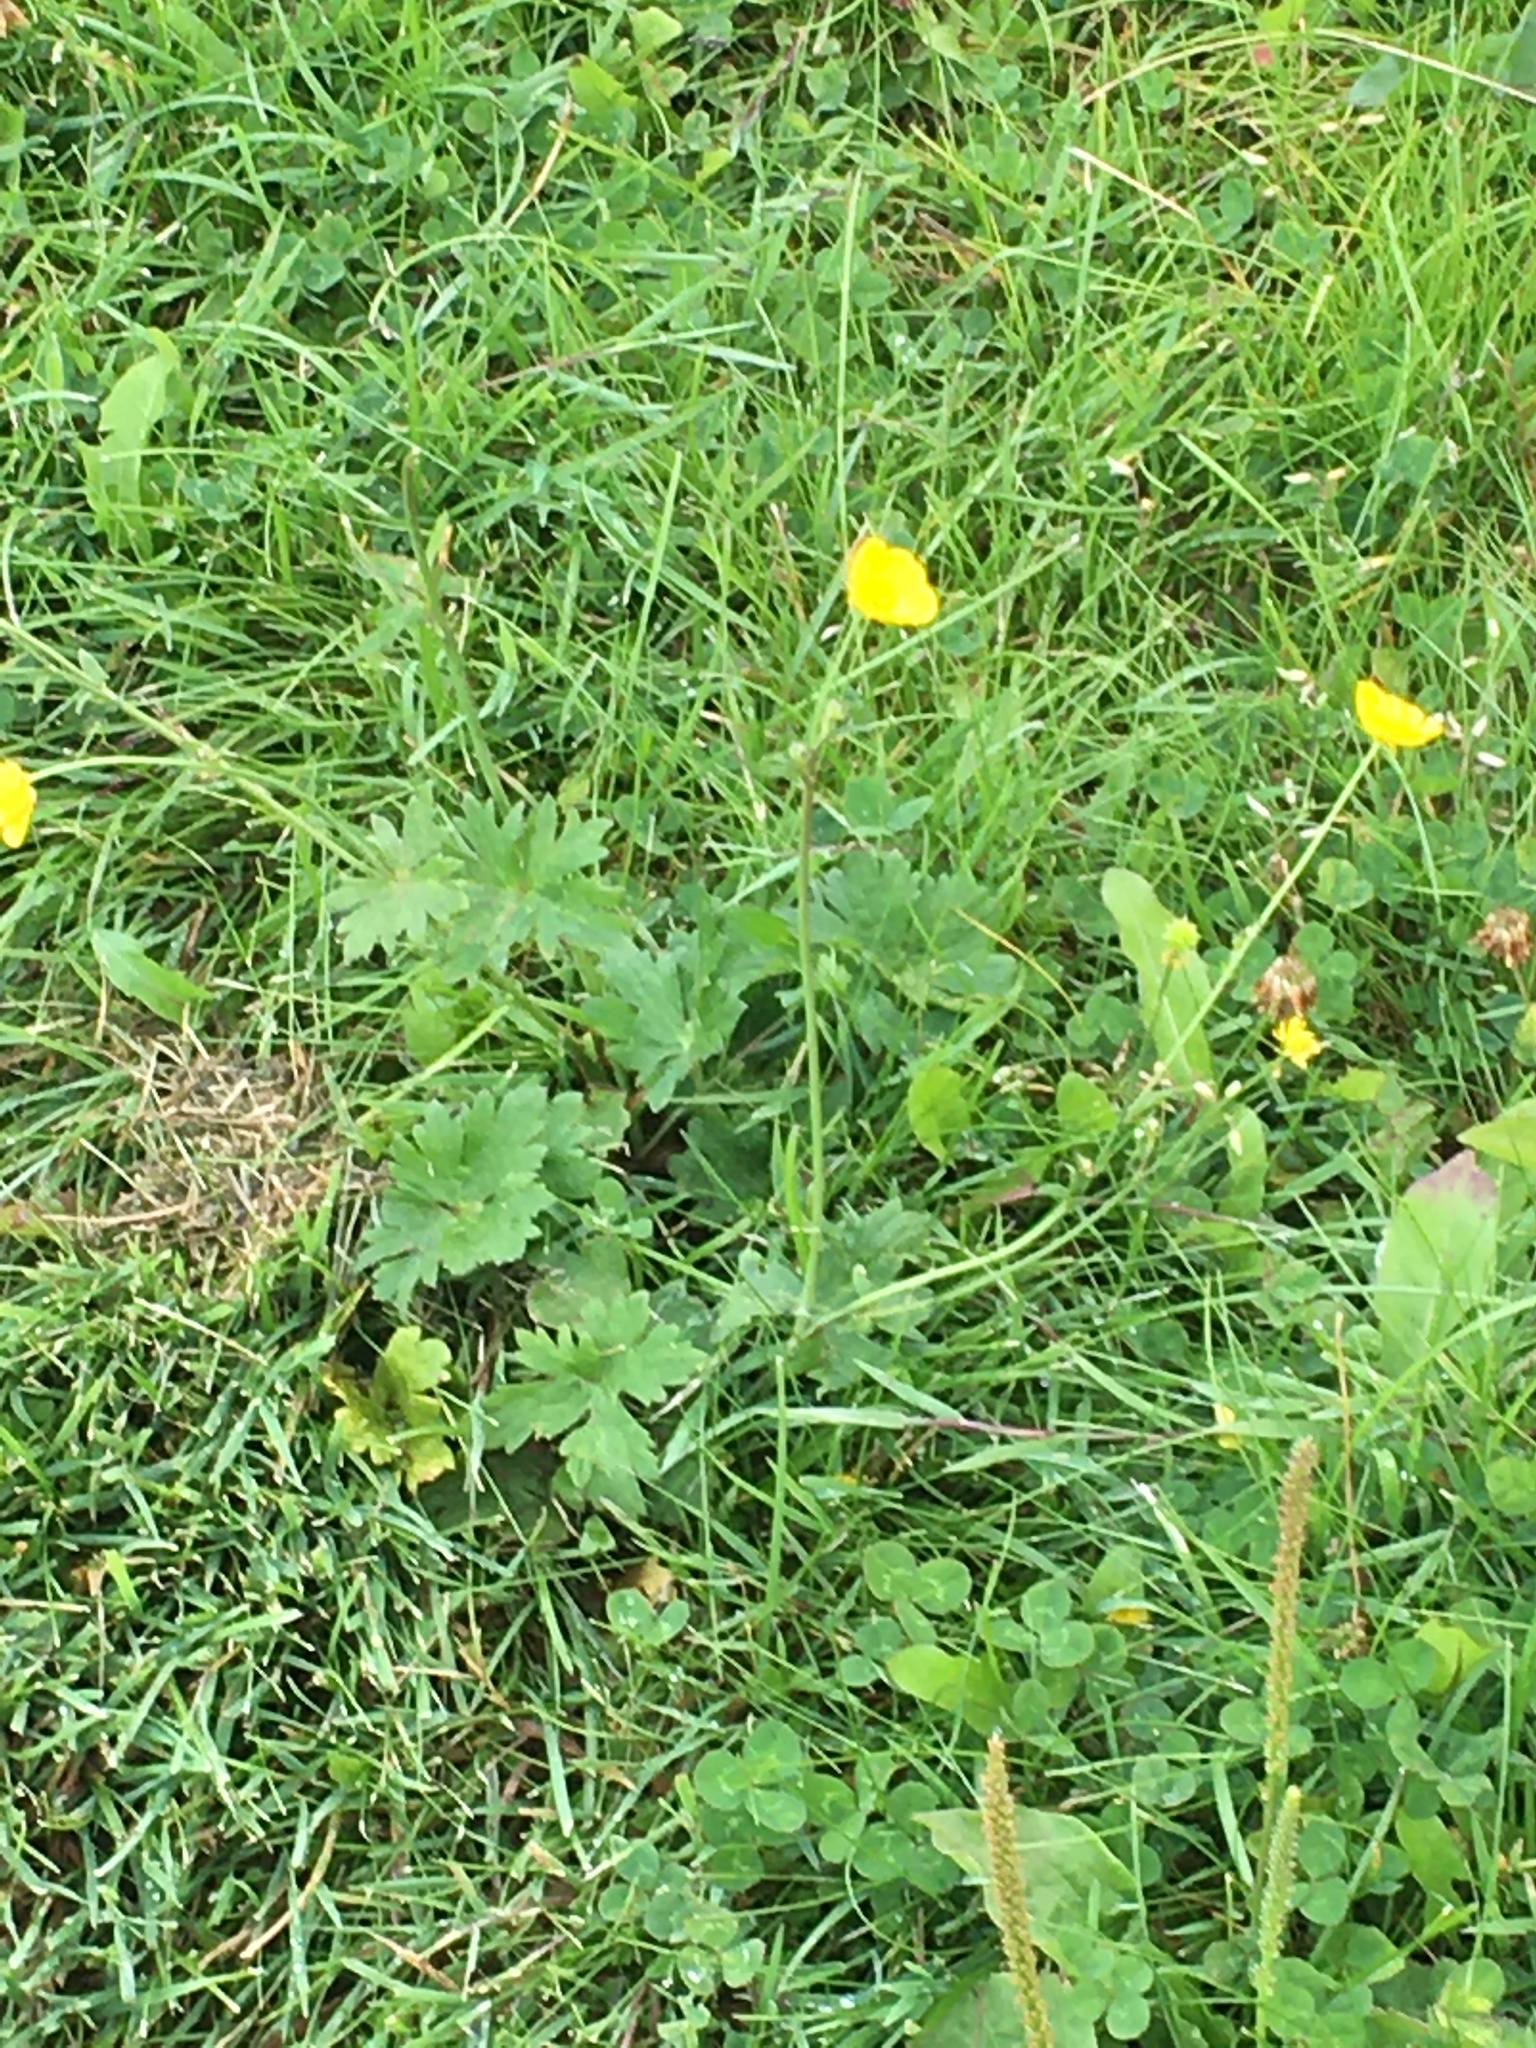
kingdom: Plantae
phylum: Tracheophyta
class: Magnoliopsida
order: Ranunculales
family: Ranunculaceae
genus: Ranunculus
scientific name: Ranunculus acris
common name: Meadow buttercup
